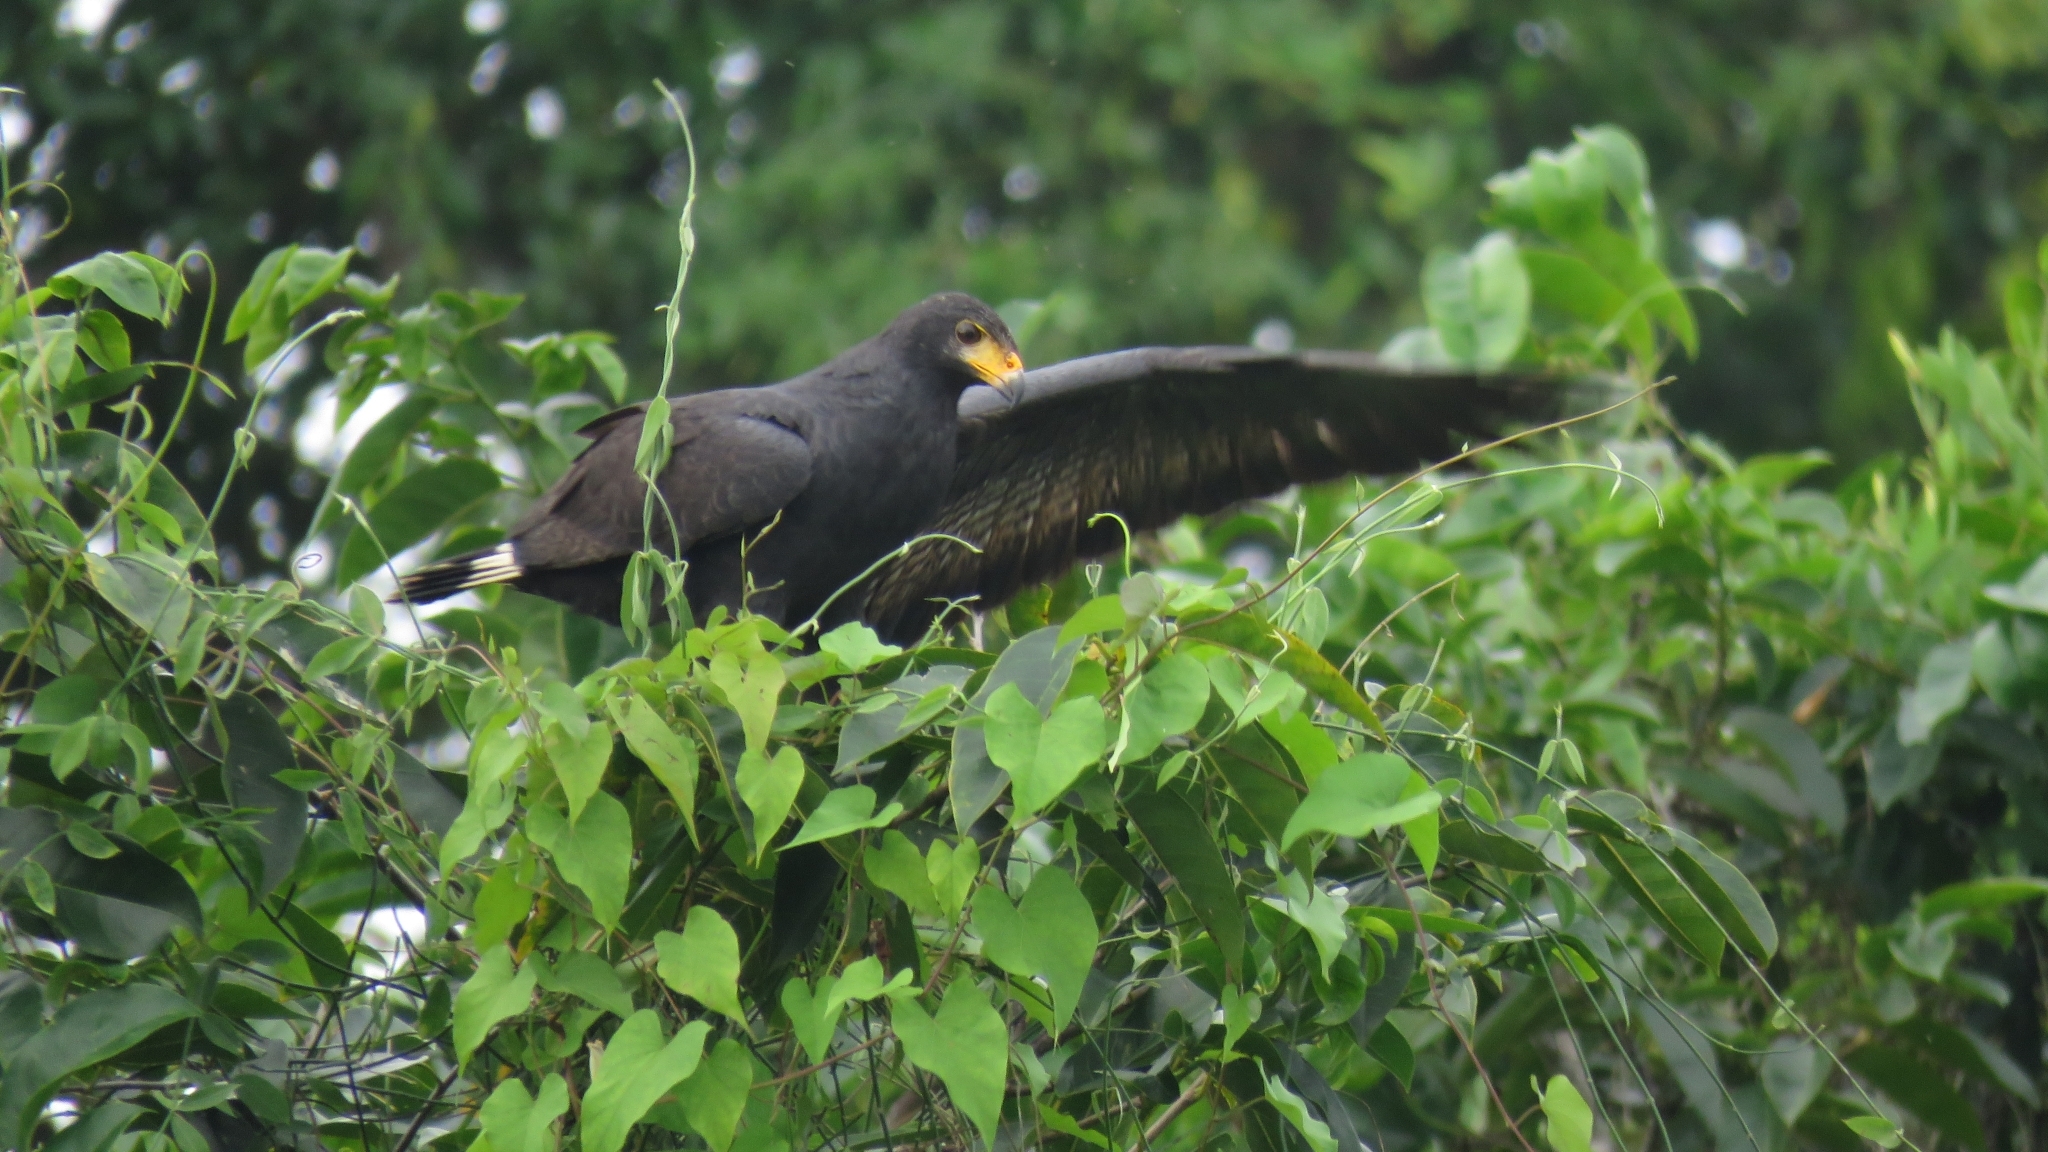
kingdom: Animalia
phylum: Chordata
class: Aves
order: Accipitriformes
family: Accipitridae
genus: Buteogallus
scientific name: Buteogallus anthracinus
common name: Common black hawk
